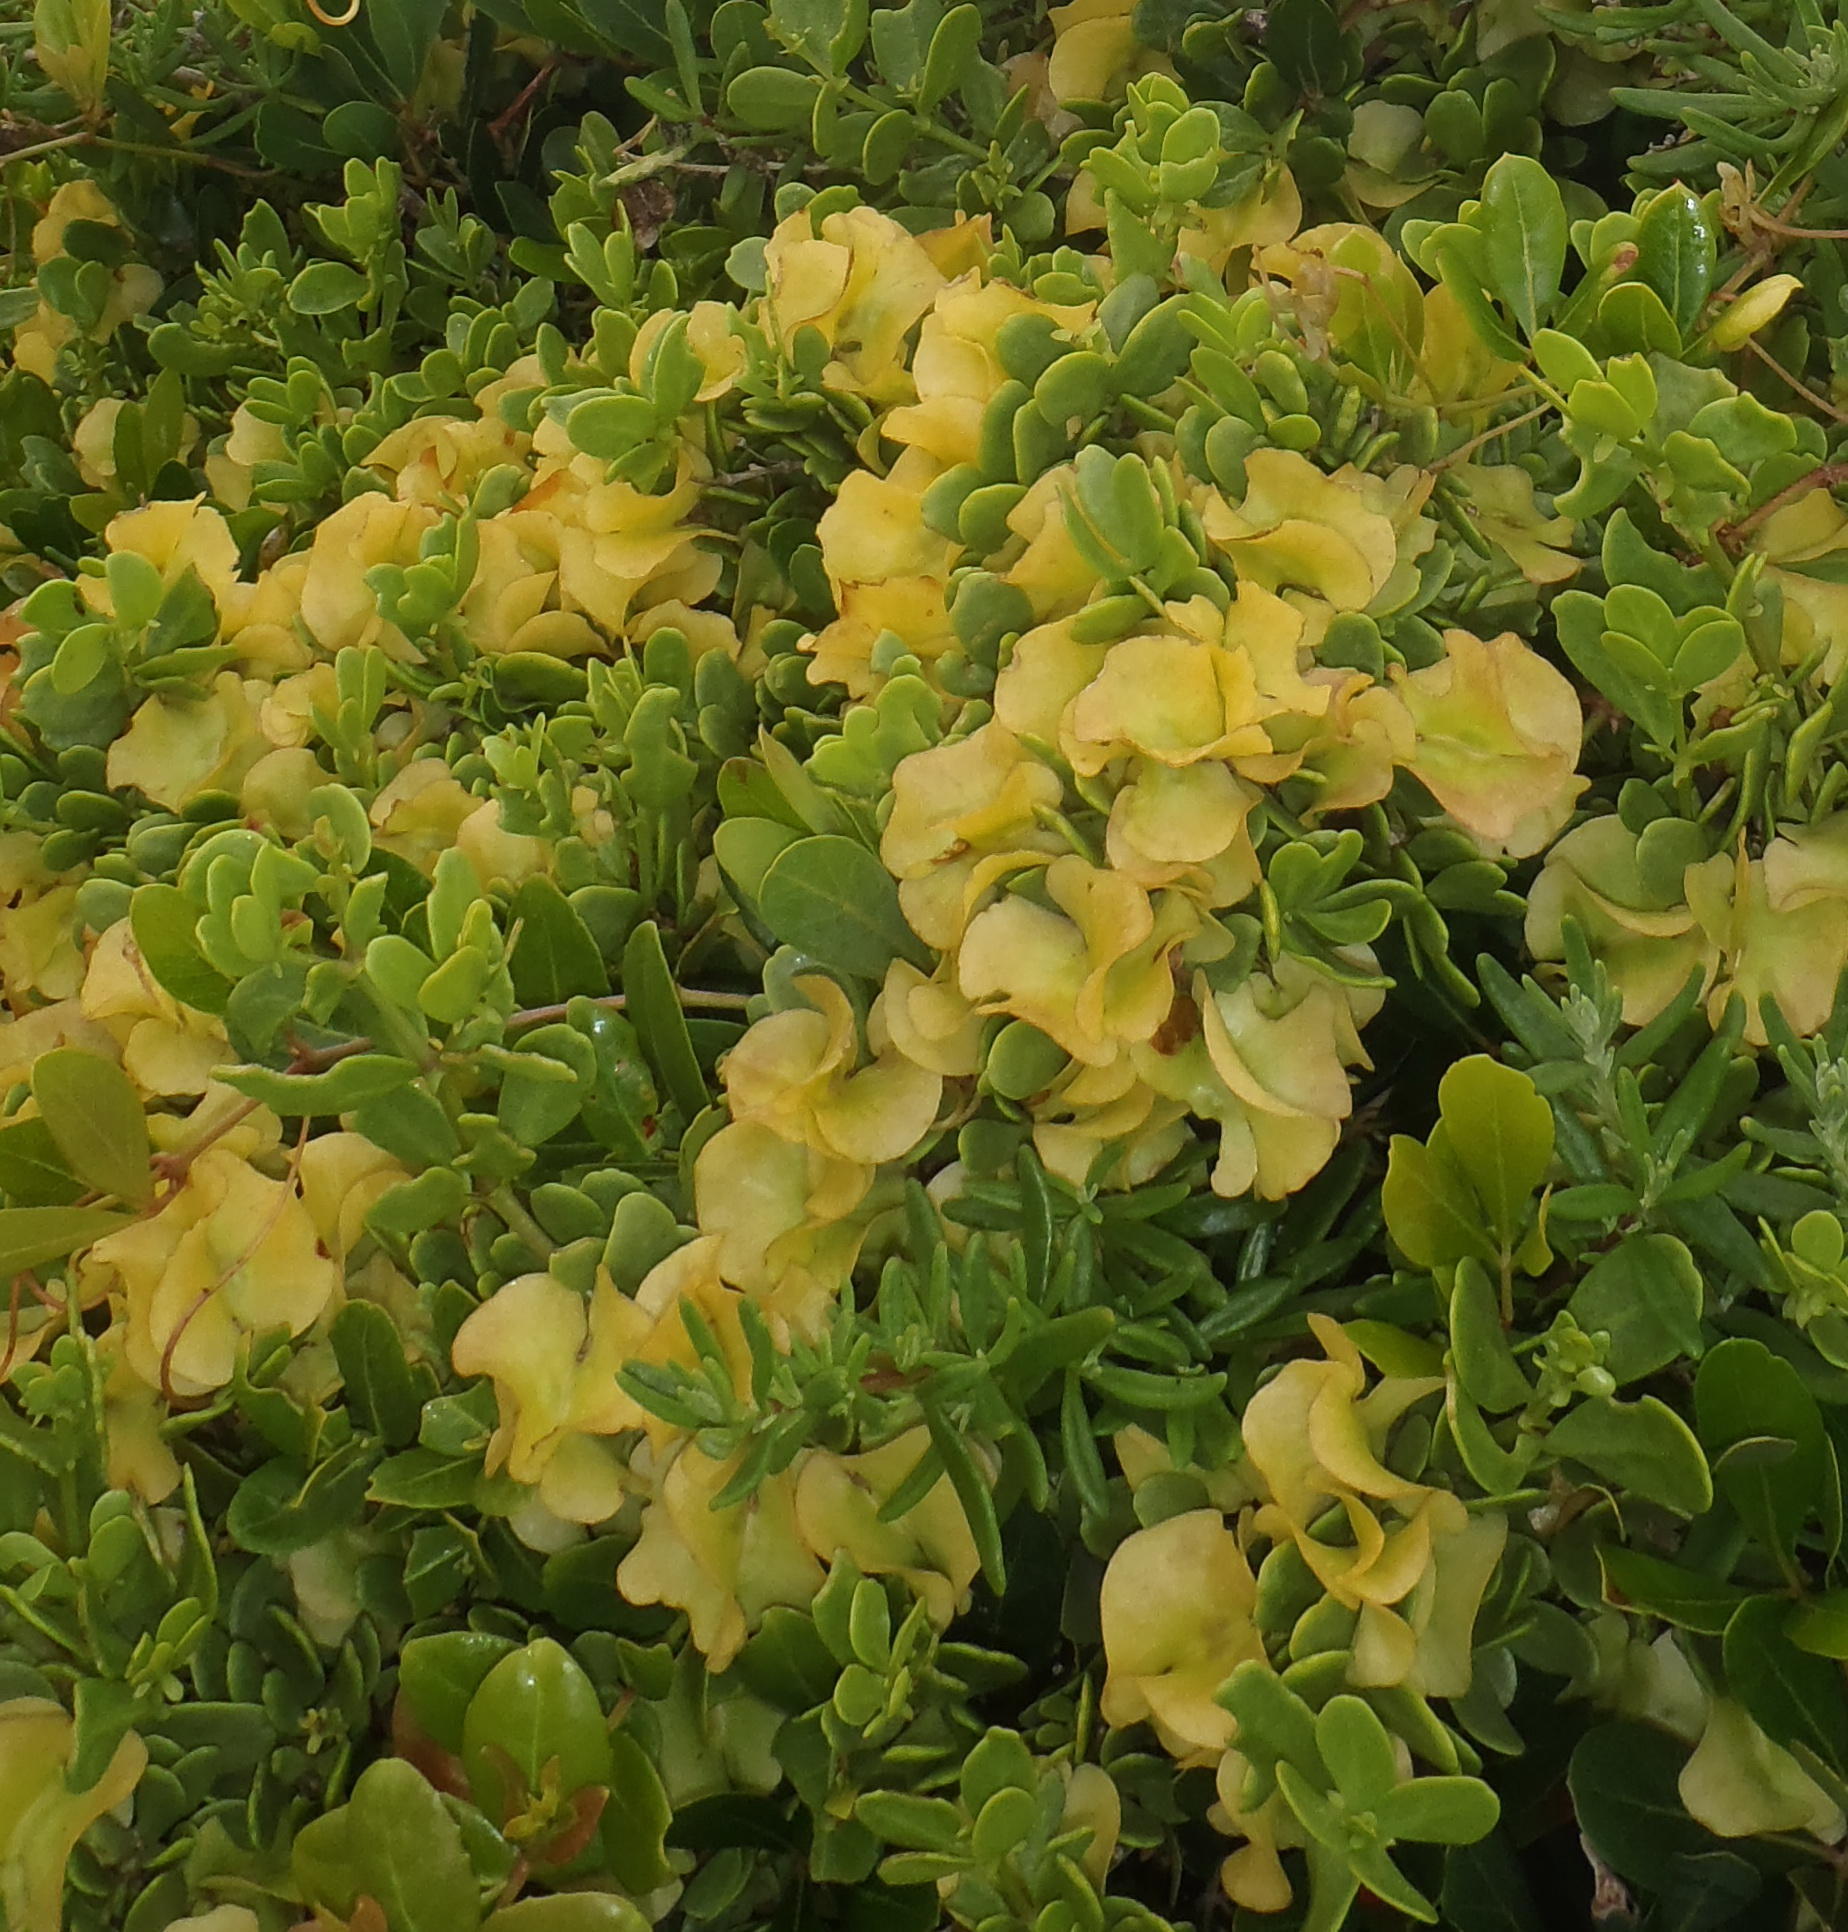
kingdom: Plantae
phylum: Tracheophyta
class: Magnoliopsida
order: Zygophyllales
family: Zygophyllaceae
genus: Roepera
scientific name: Roepera morgsana
